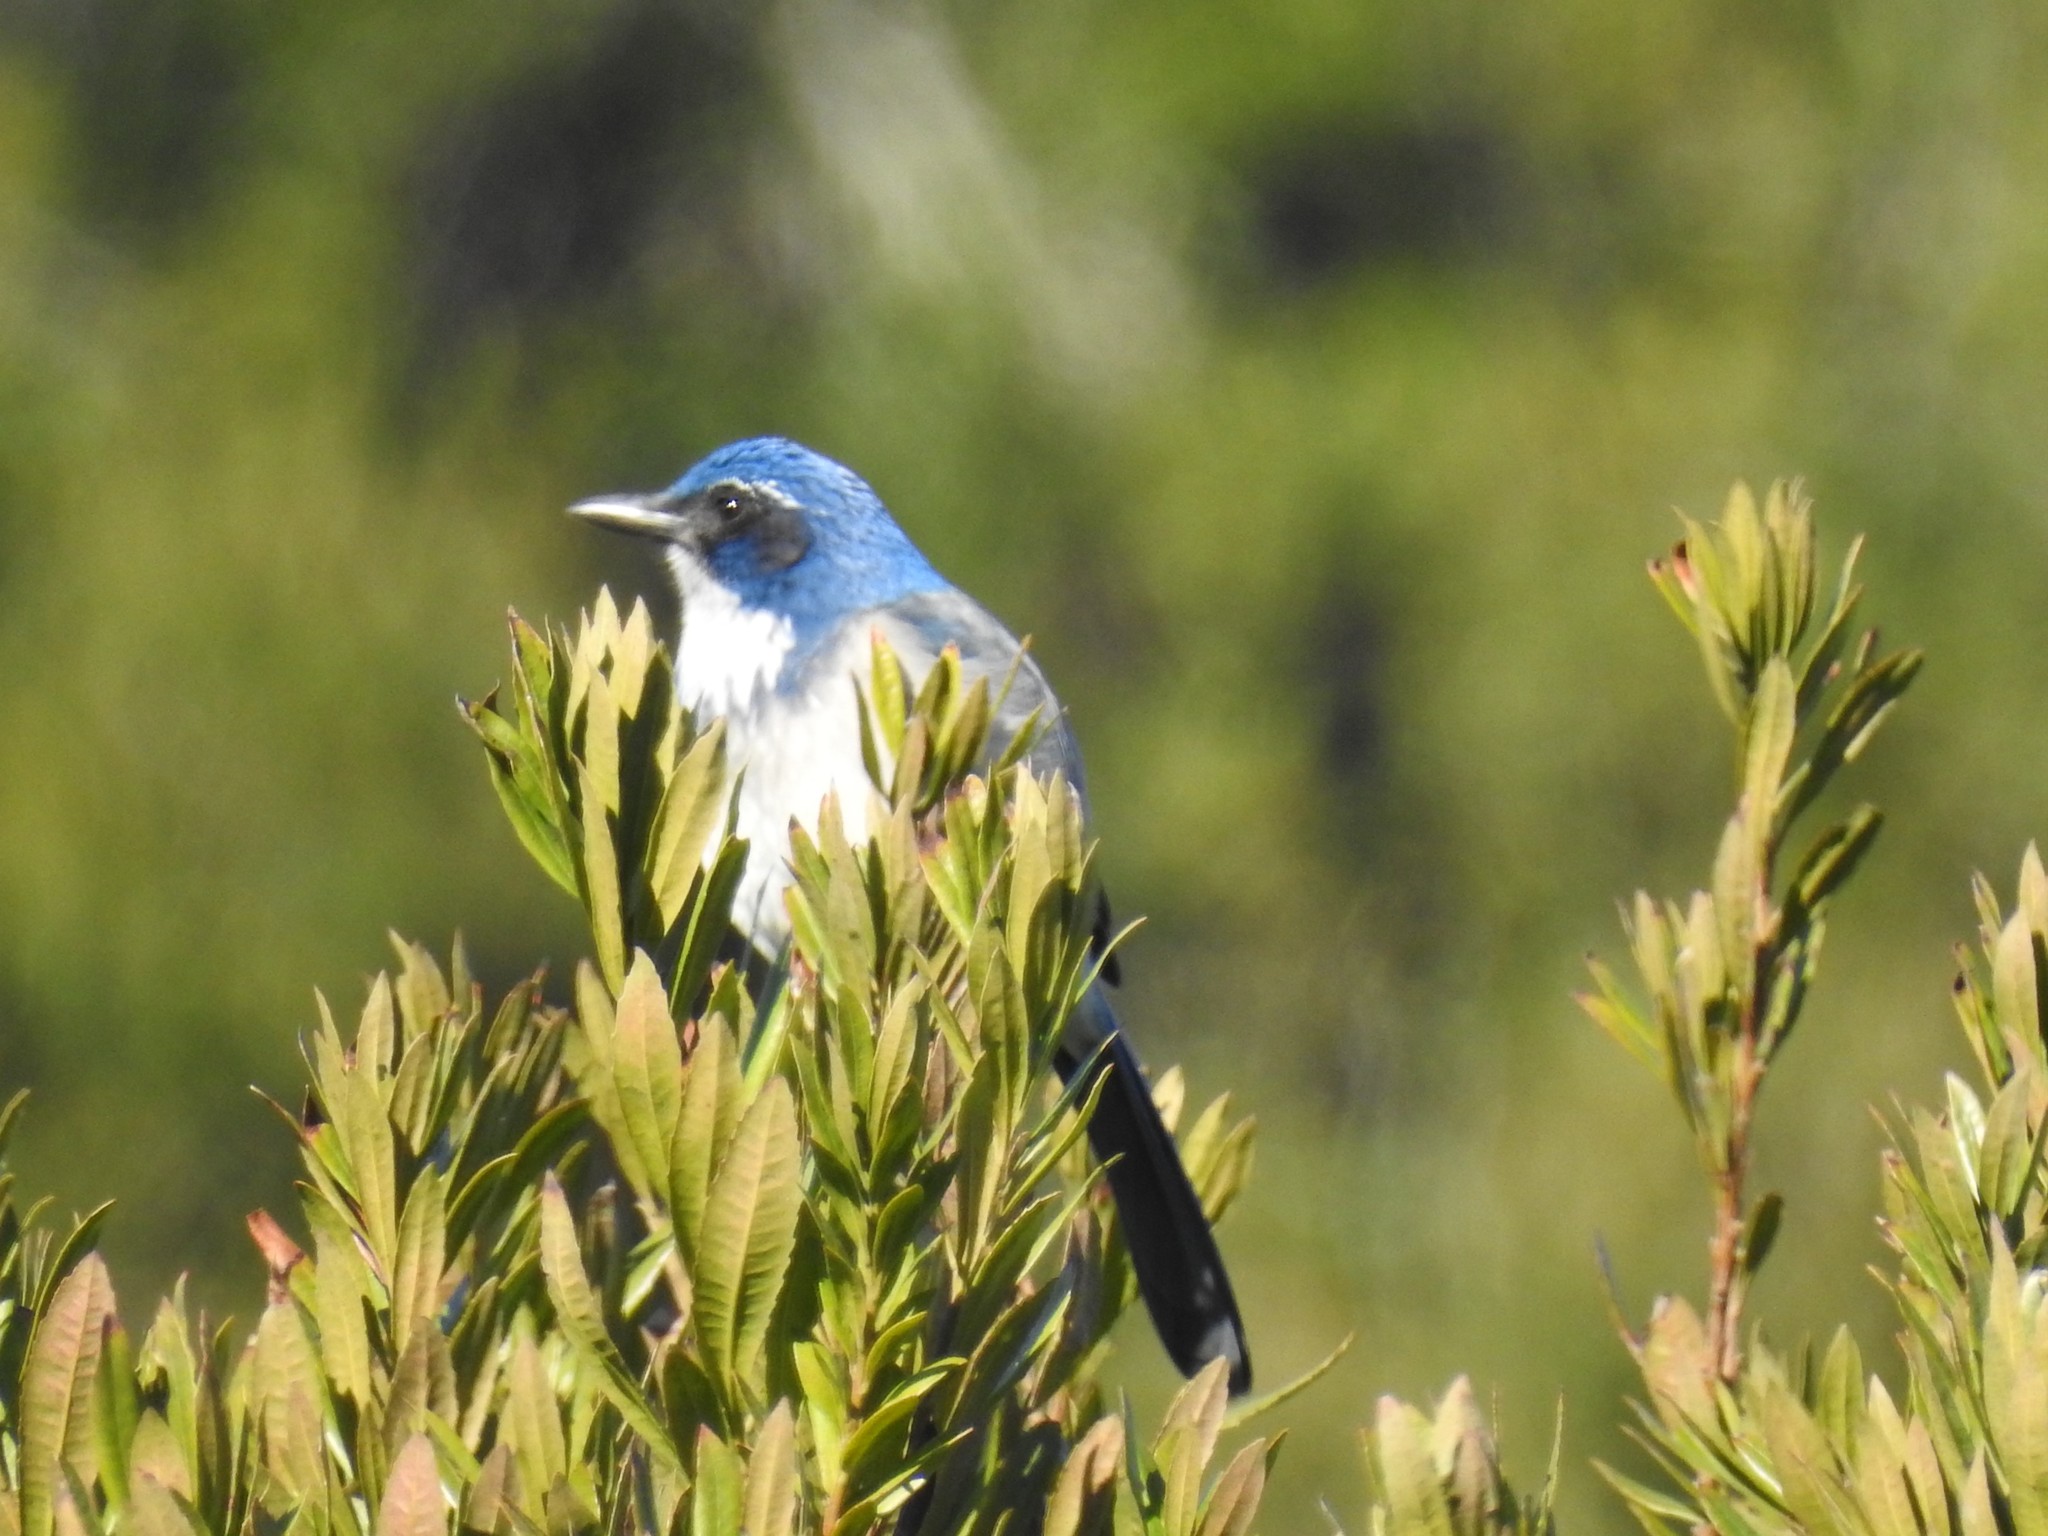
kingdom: Animalia
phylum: Chordata
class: Aves
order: Passeriformes
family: Corvidae
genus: Aphelocoma
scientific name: Aphelocoma californica
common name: California scrub-jay
